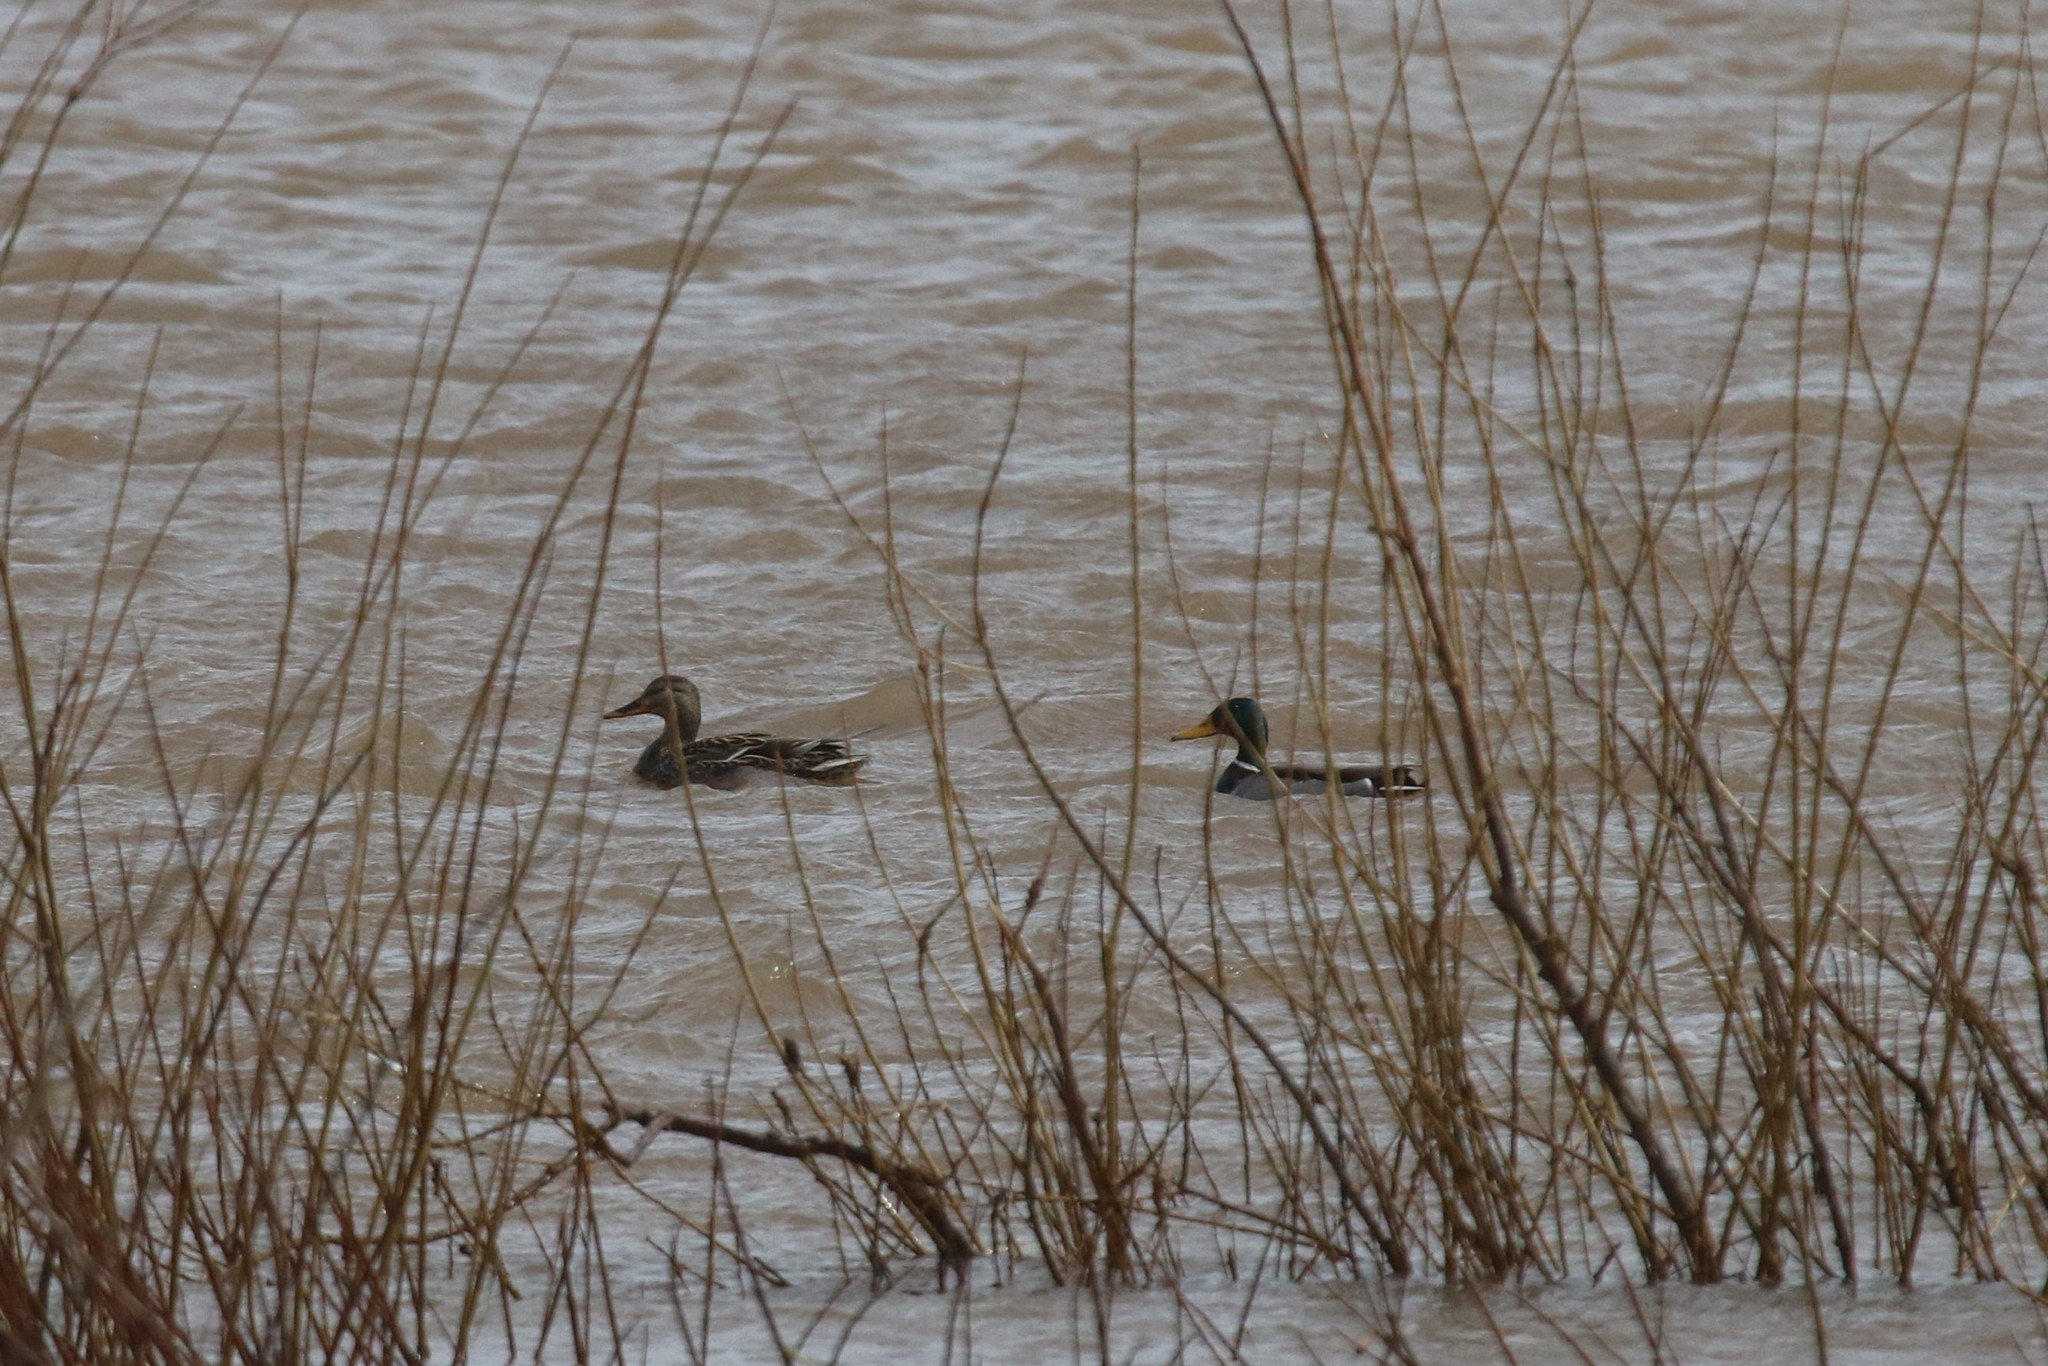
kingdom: Animalia
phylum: Chordata
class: Aves
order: Anseriformes
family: Anatidae
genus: Anas
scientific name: Anas platyrhynchos
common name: Mallard
